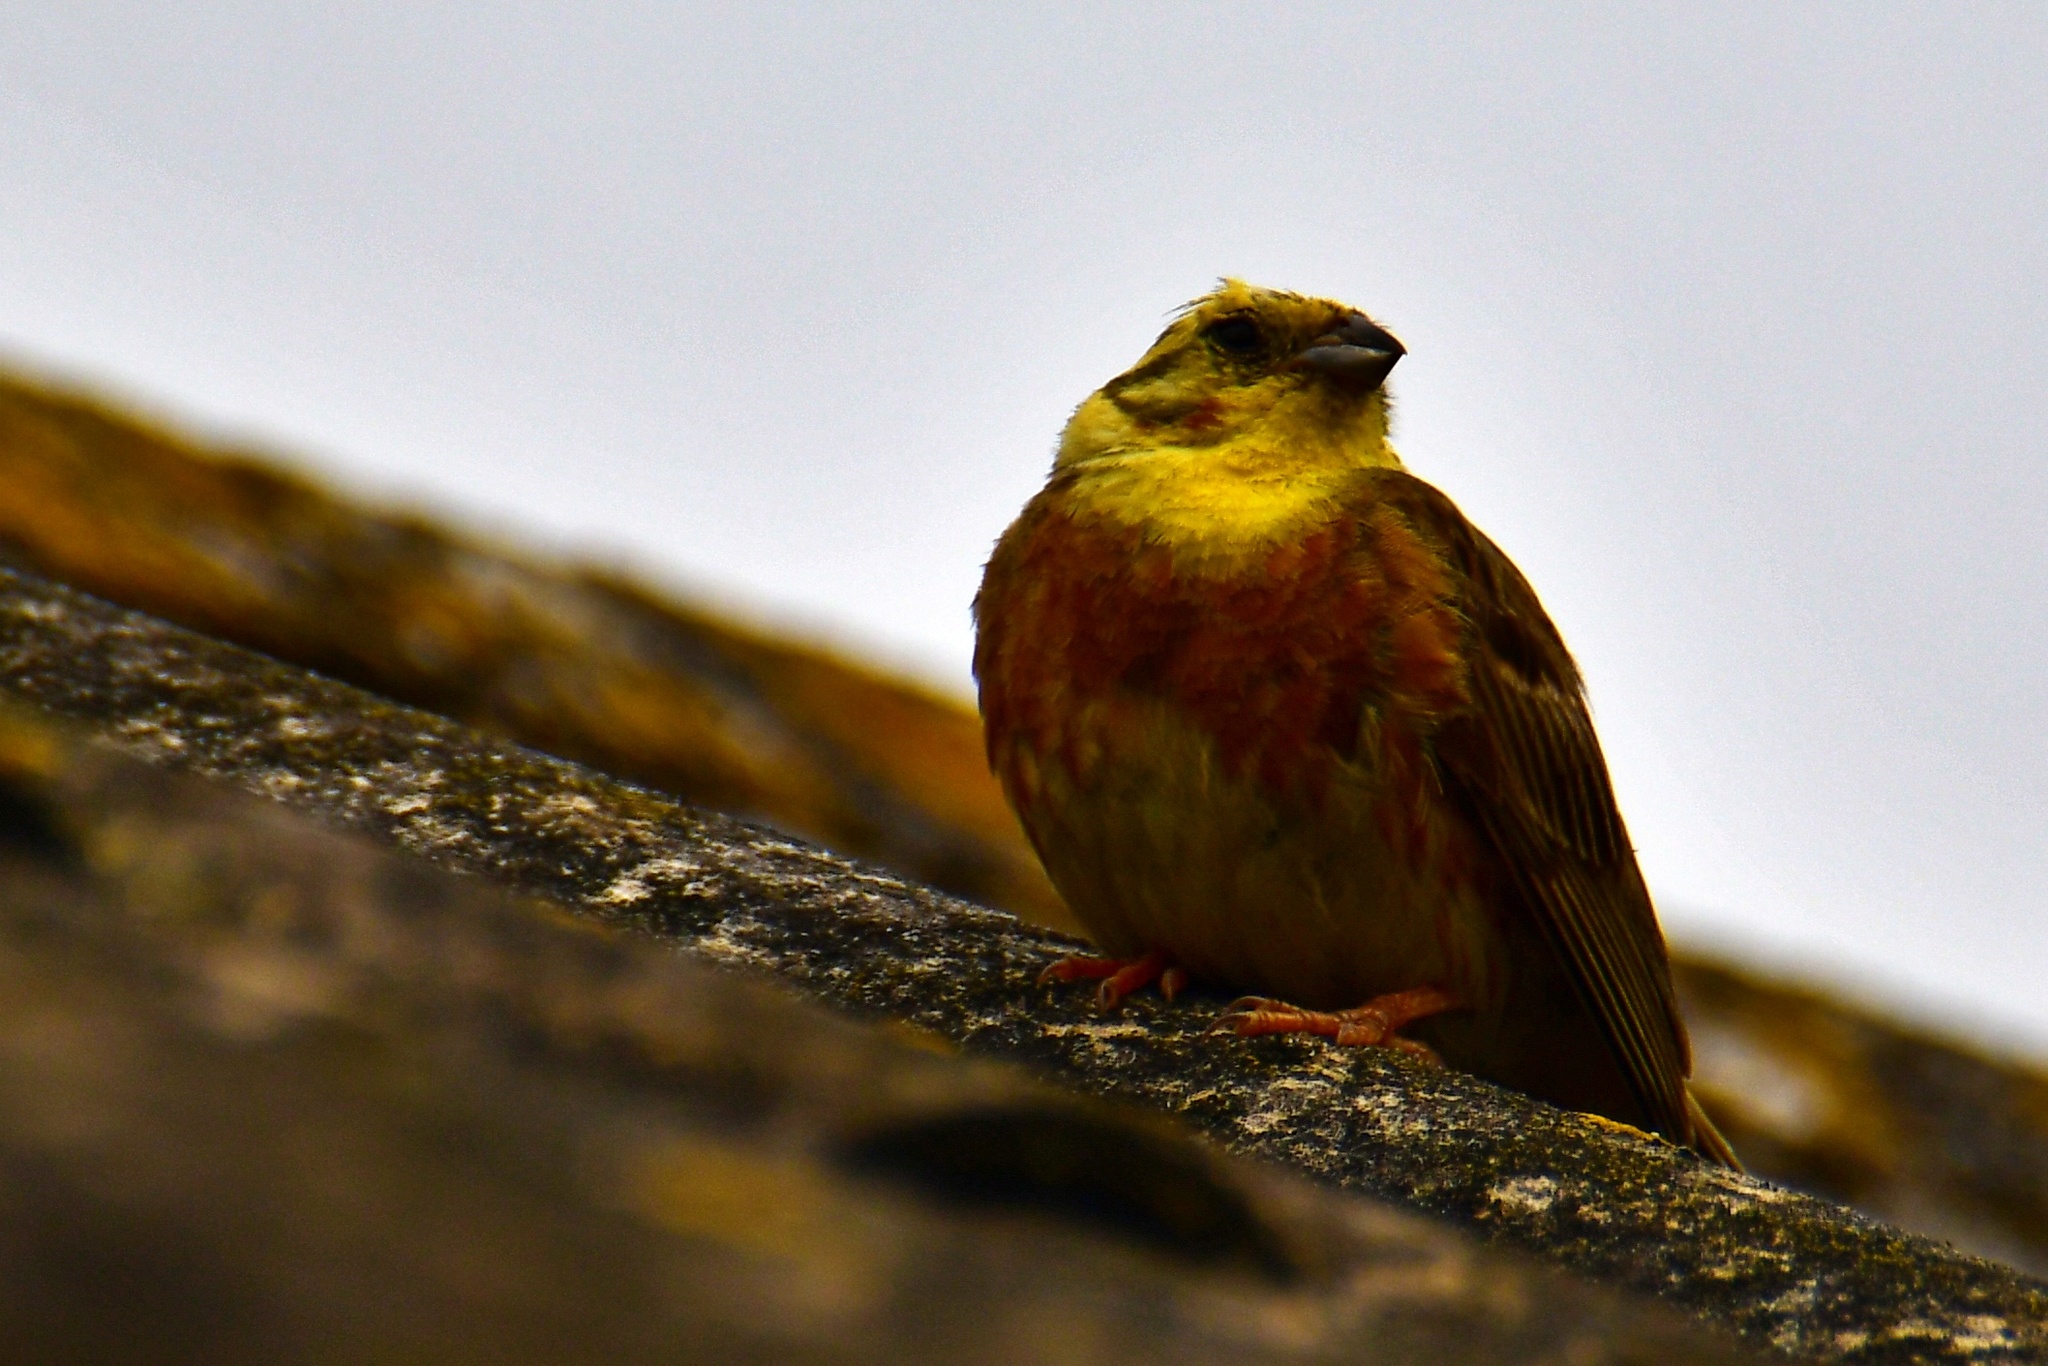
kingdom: Animalia
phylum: Chordata
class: Aves
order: Passeriformes
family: Emberizidae
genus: Emberiza
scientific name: Emberiza citrinella
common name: Yellowhammer
